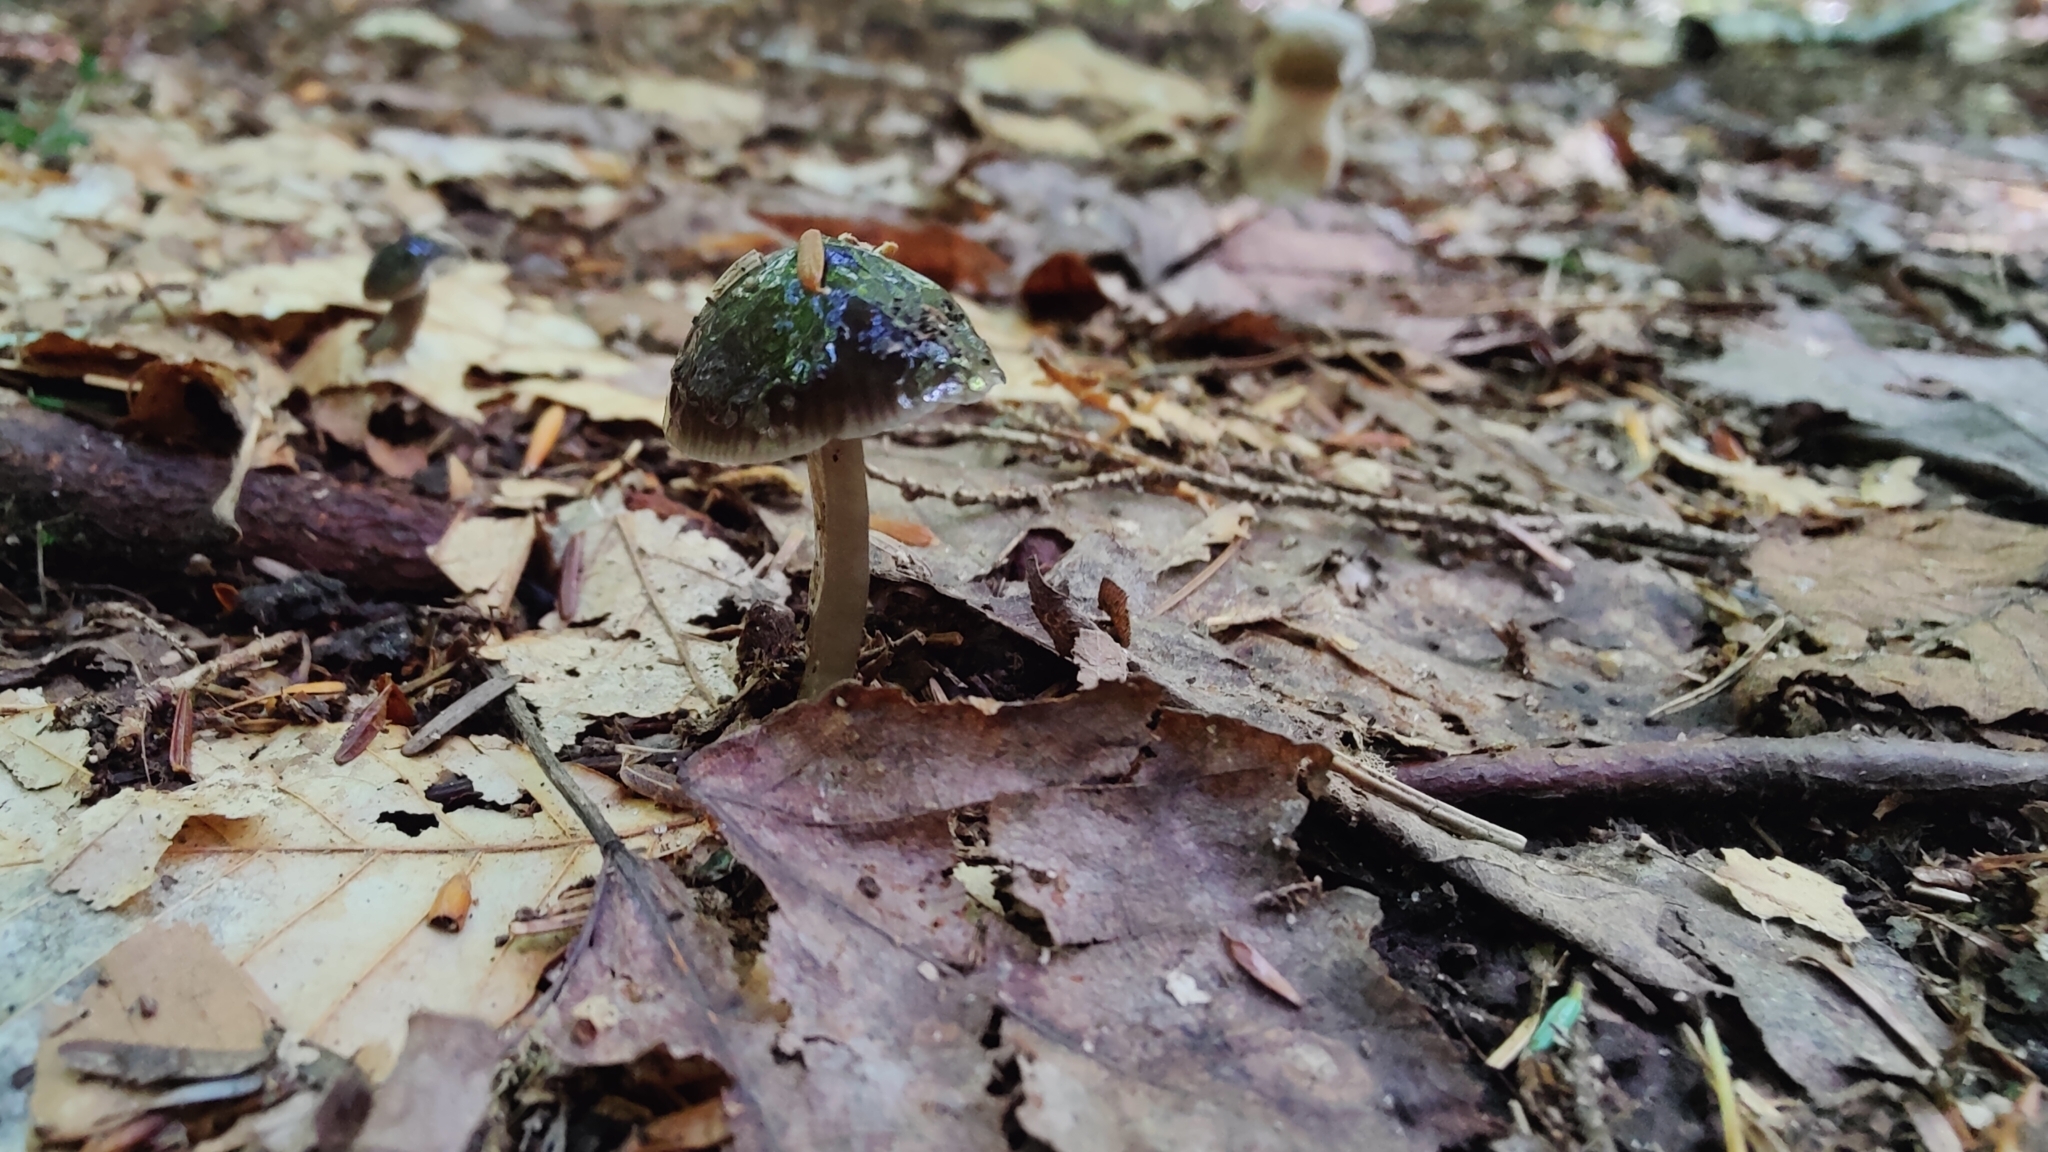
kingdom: Fungi
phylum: Basidiomycota
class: Agaricomycetes
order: Agaricales
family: Hygrophoraceae
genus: Gliophorus
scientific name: Gliophorus irrigatus
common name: Slimy waxcap
